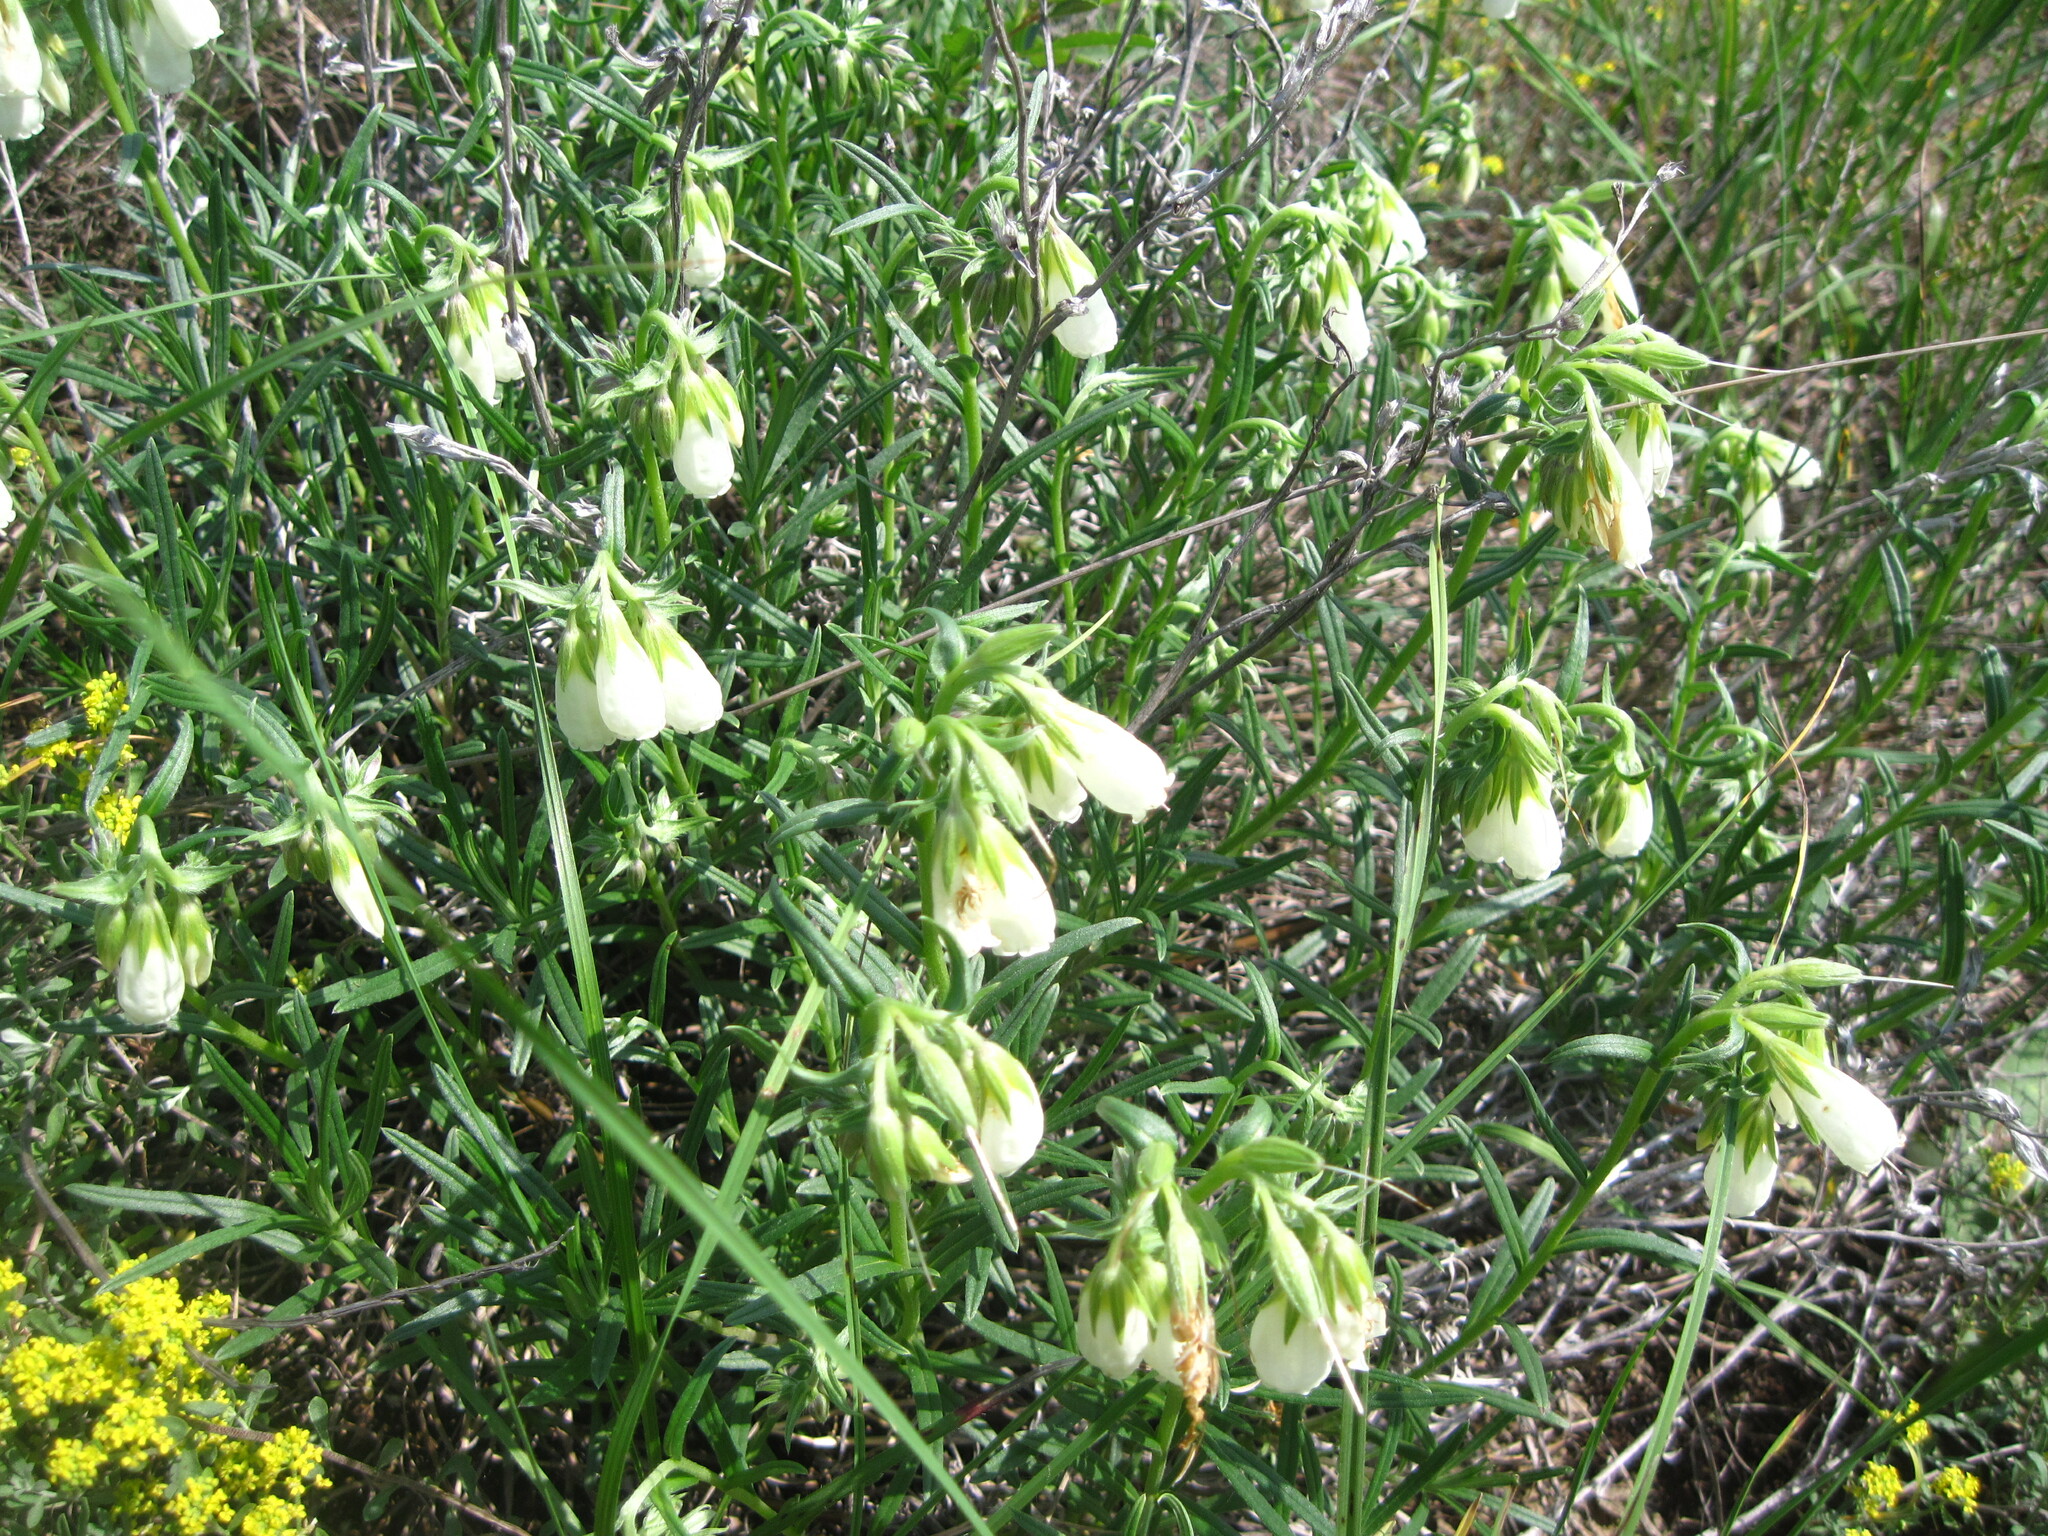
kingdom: Plantae
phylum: Tracheophyta
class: Magnoliopsida
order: Boraginales
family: Boraginaceae
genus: Onosma
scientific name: Onosma simplicissima
